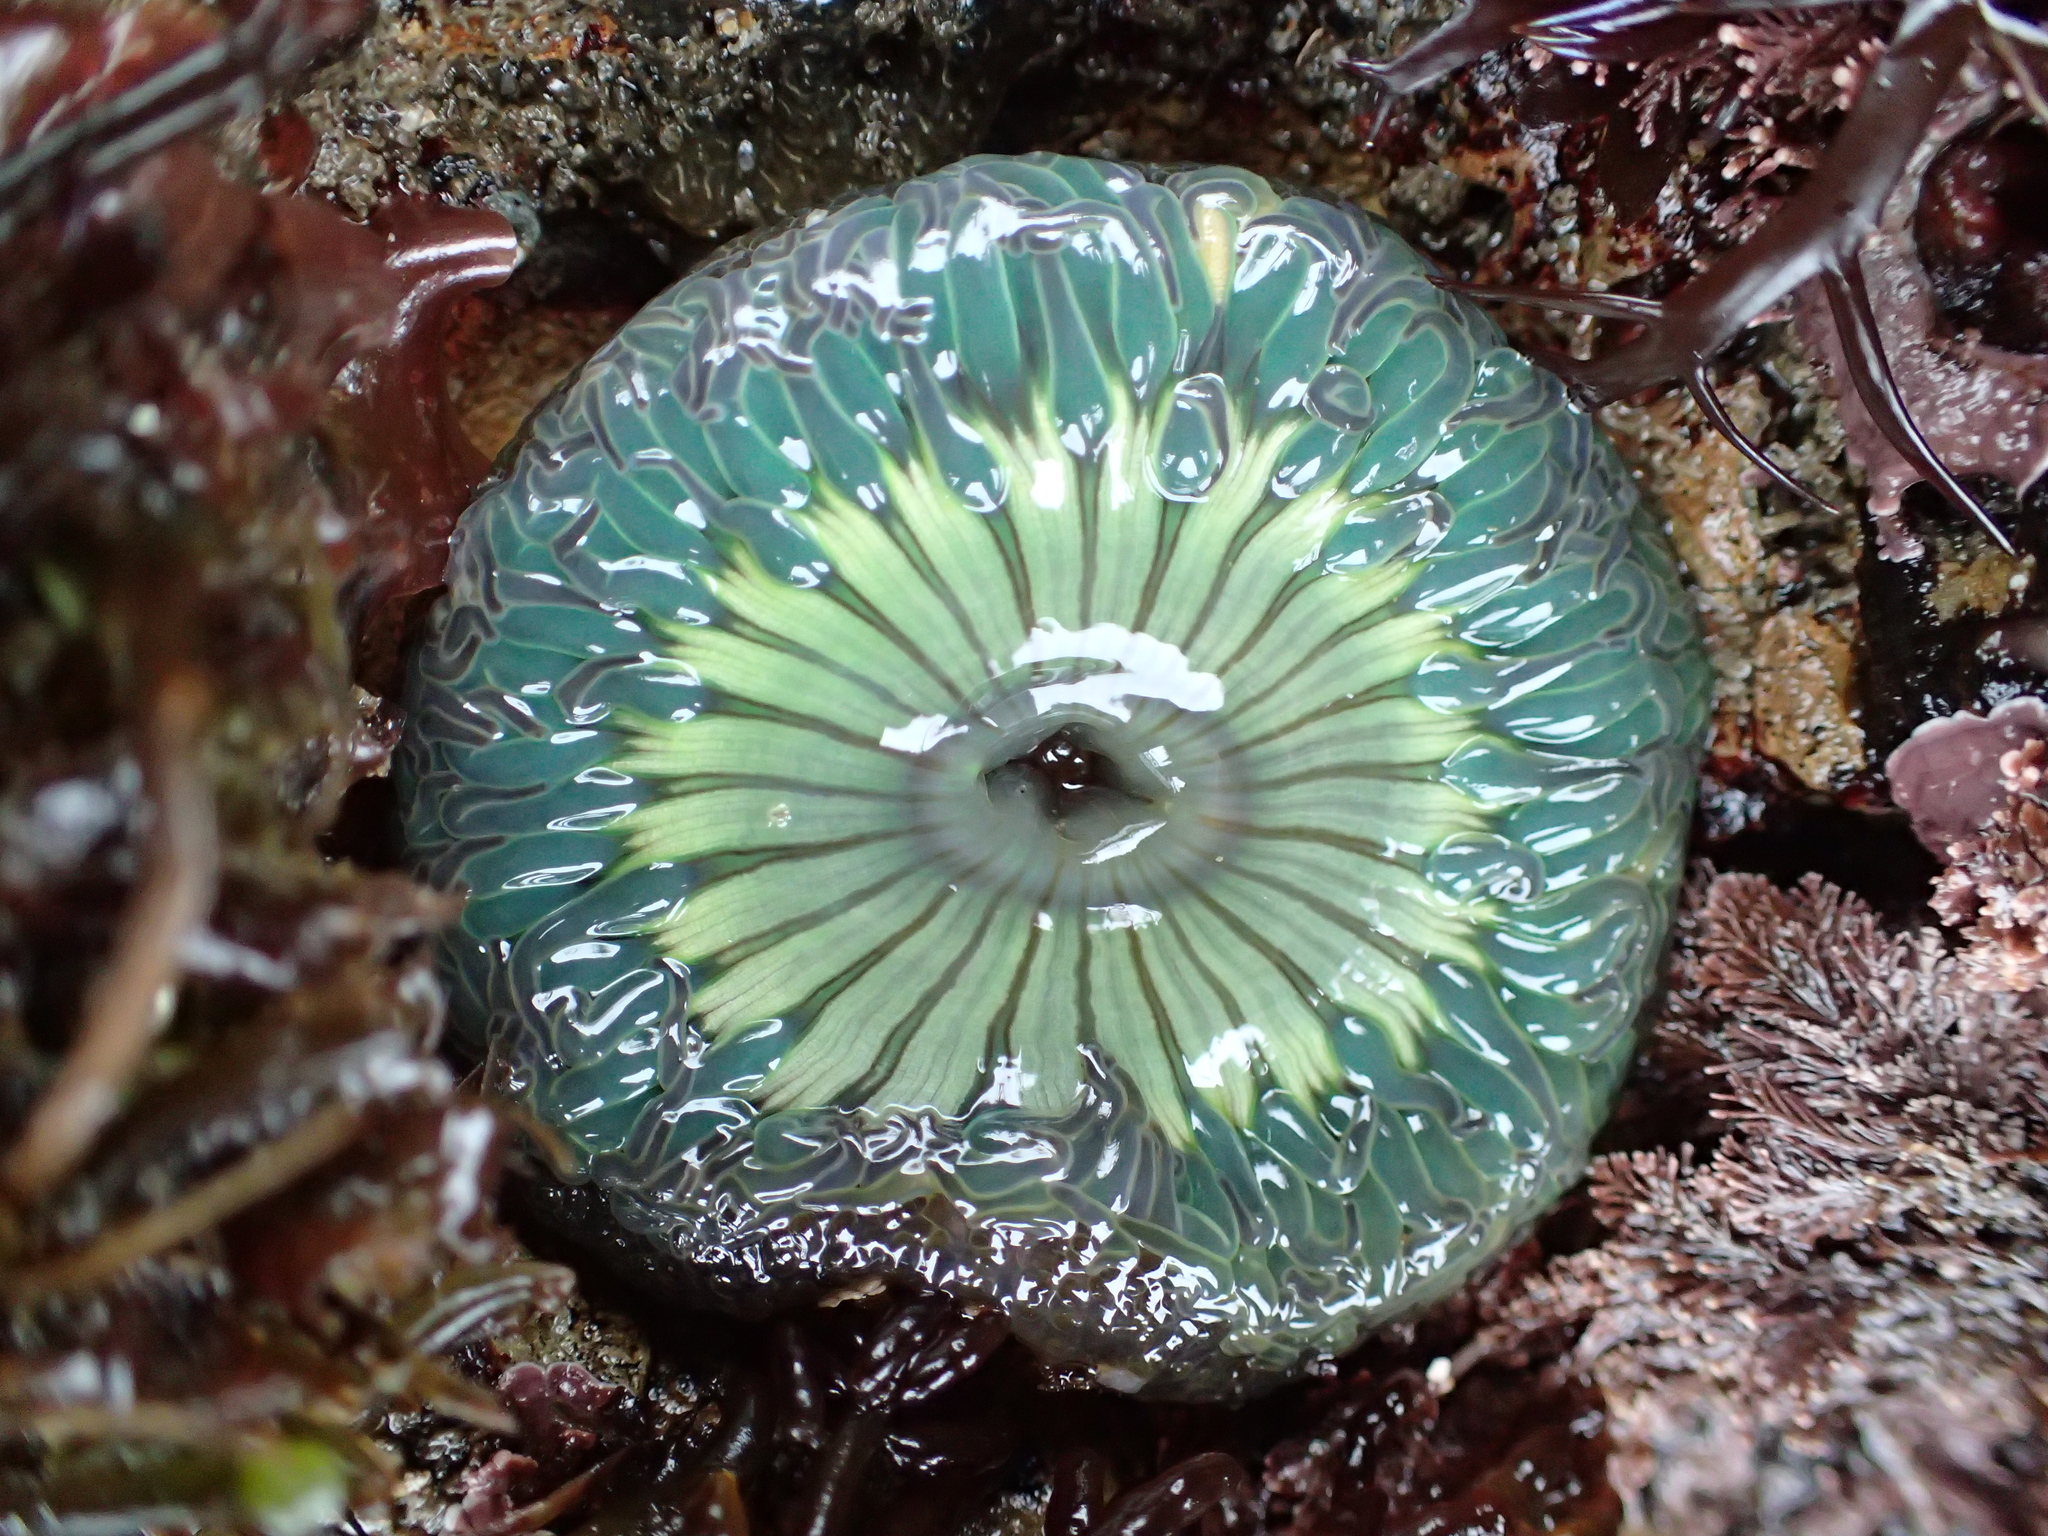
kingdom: Animalia
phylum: Cnidaria
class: Anthozoa
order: Actiniaria
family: Actiniidae
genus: Anthopleura
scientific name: Anthopleura sola
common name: Sun anemone
